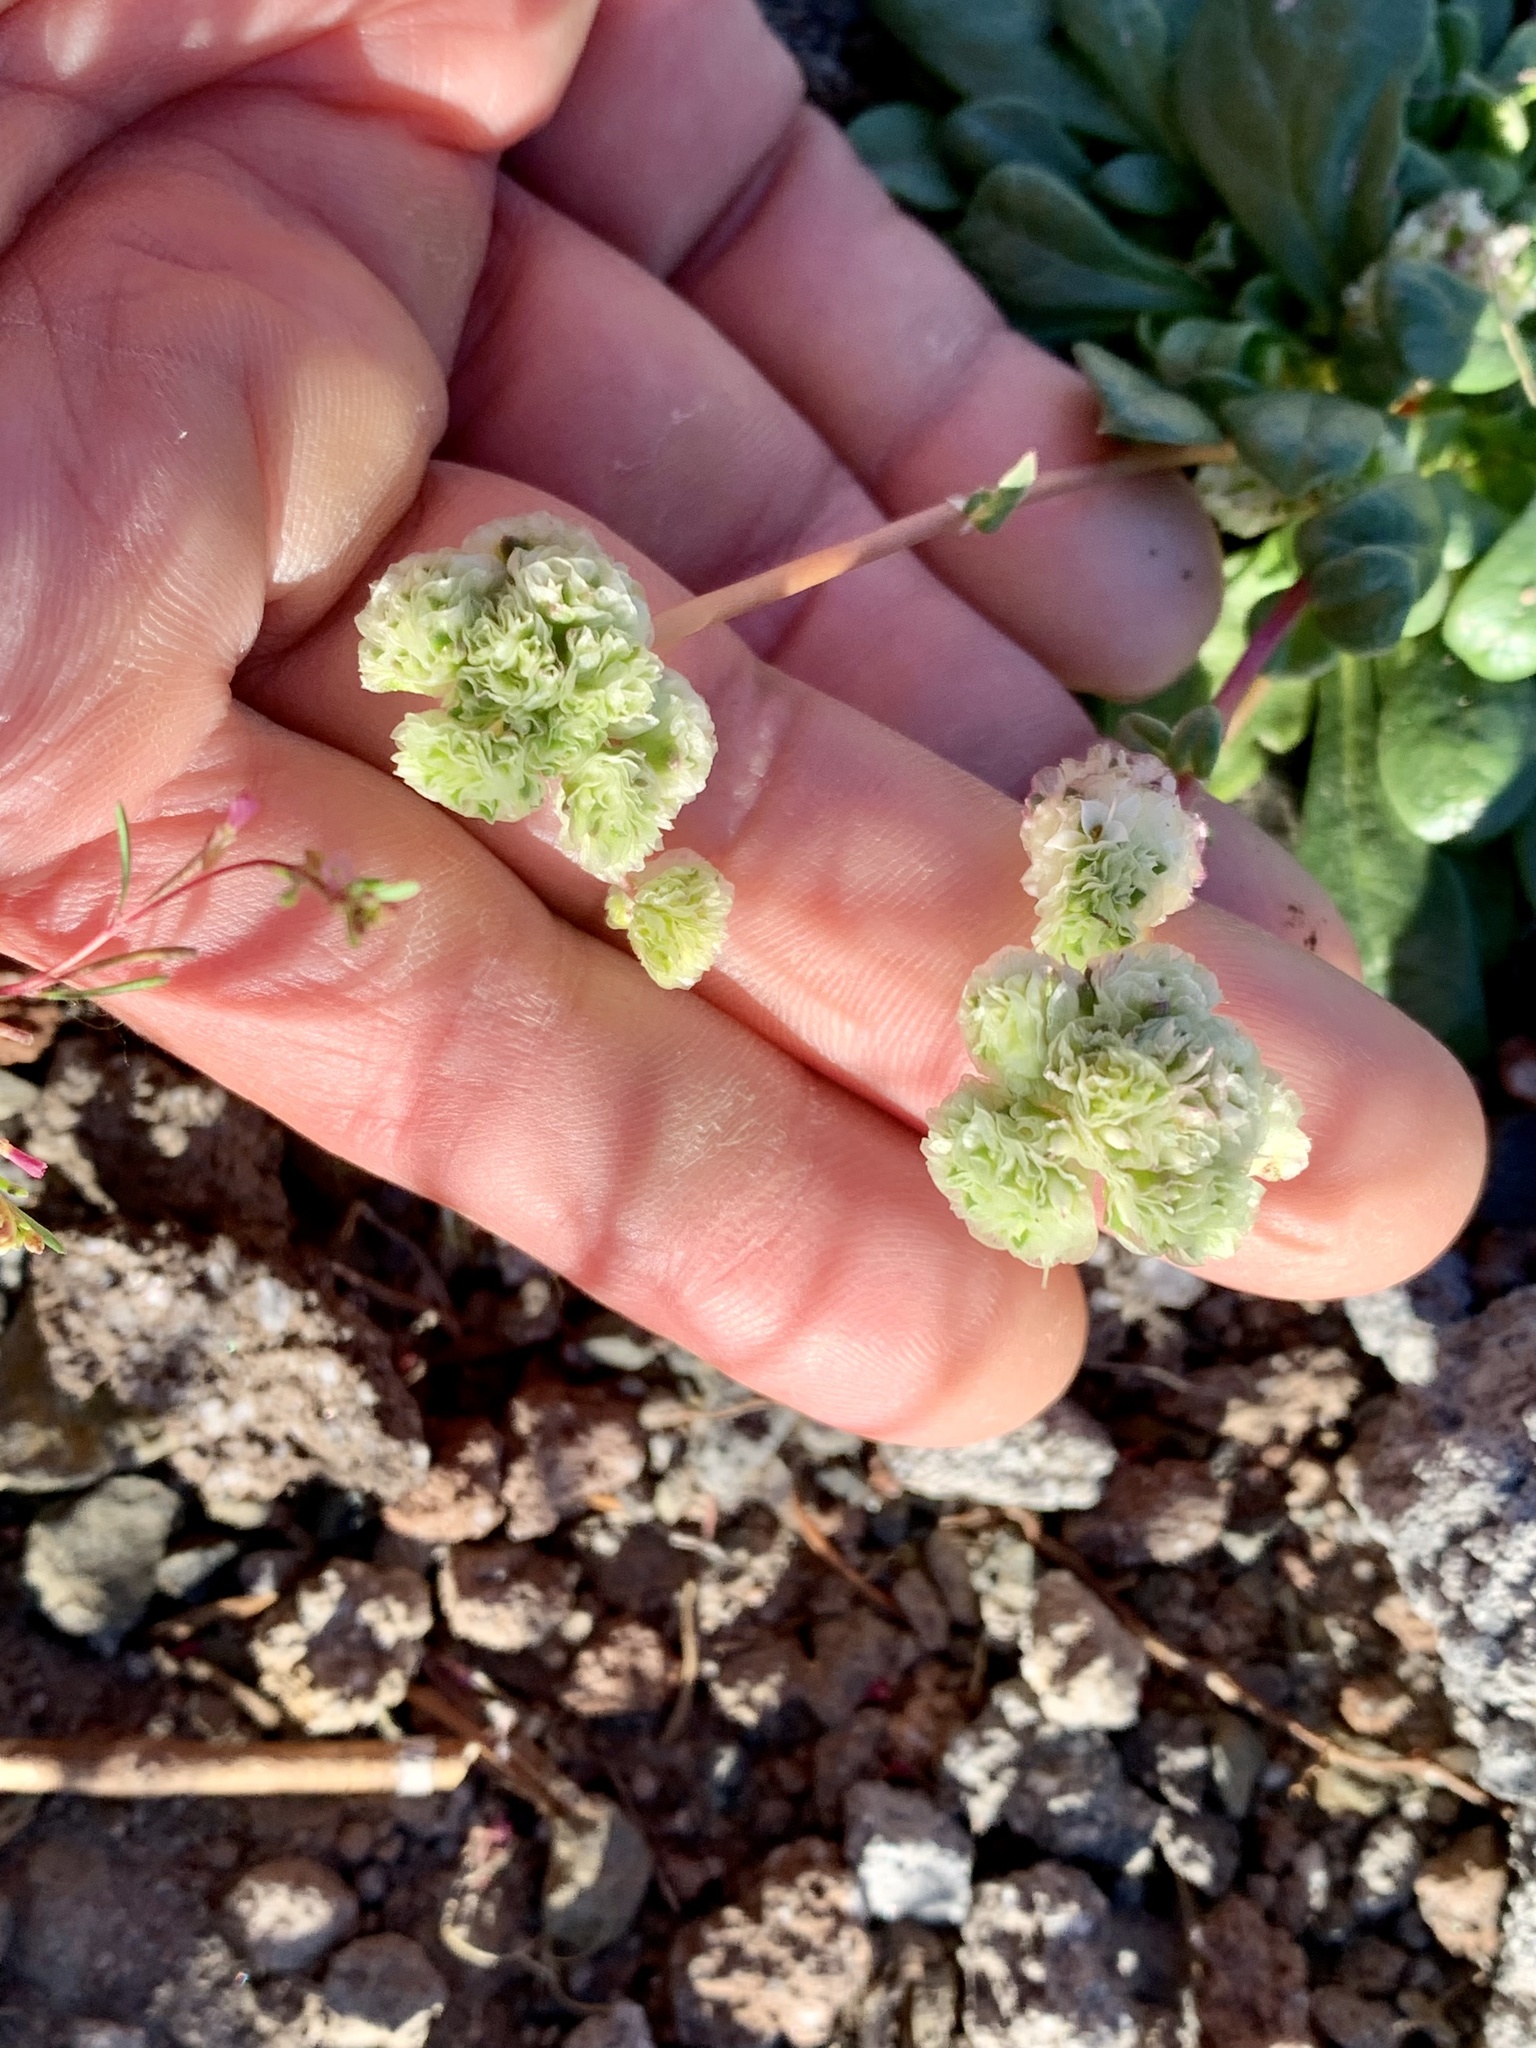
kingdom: Plantae
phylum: Tracheophyta
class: Magnoliopsida
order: Caryophyllales
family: Montiaceae
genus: Calyptridium
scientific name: Calyptridium umbellatum
